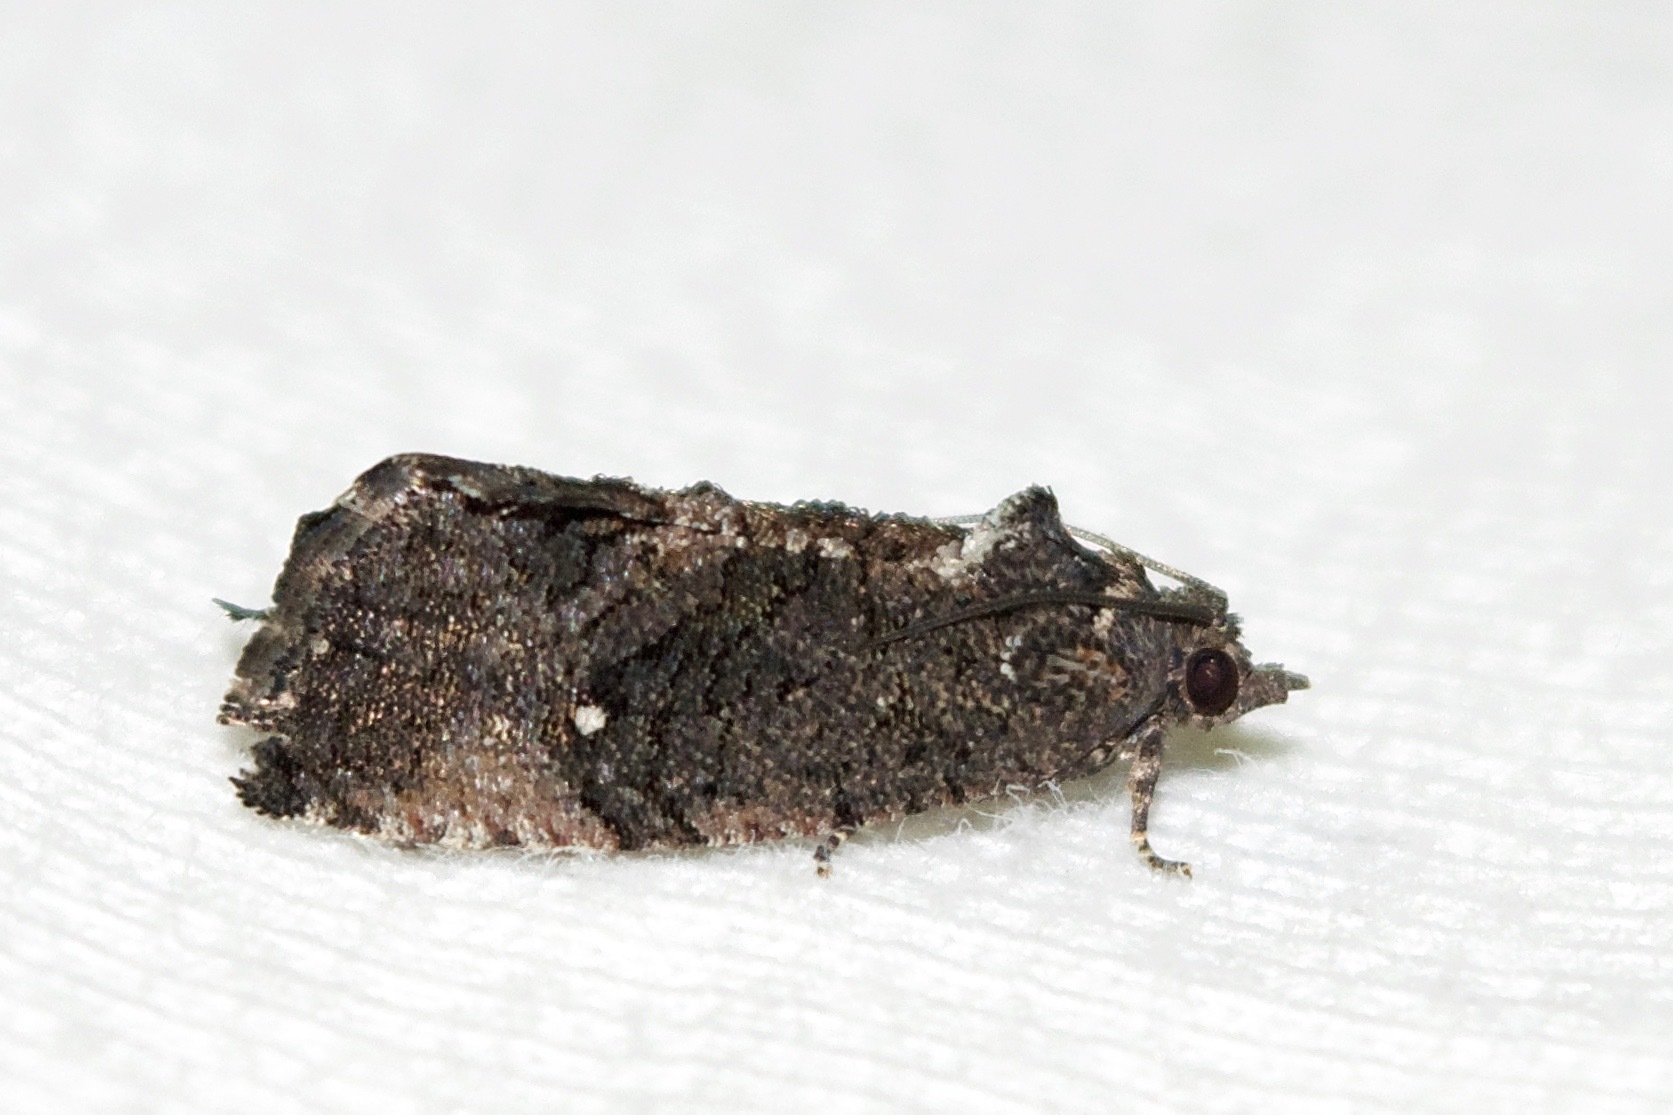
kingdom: Animalia
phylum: Arthropoda
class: Insecta
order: Lepidoptera
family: Tortricidae
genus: Gymnandrosoma
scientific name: Gymnandrosoma punctidiscanum
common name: Dotted ecdytolopha moth
